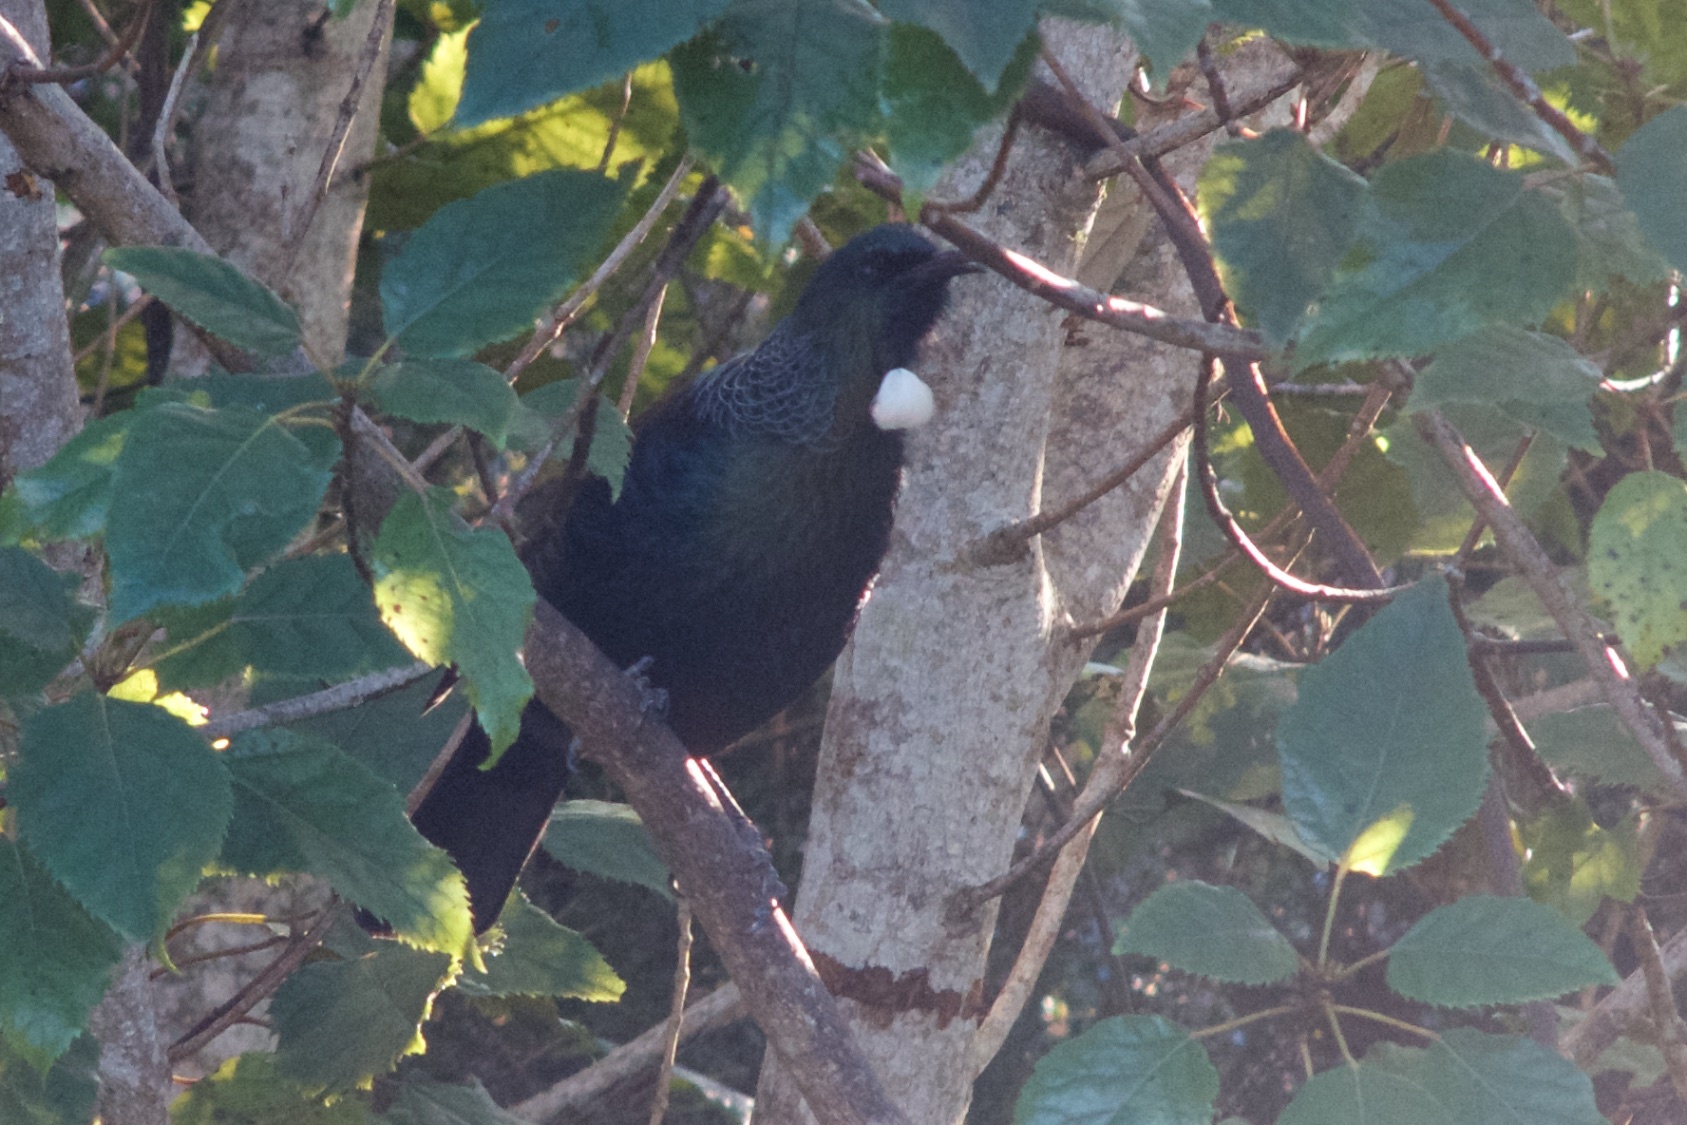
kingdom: Animalia
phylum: Chordata
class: Aves
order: Passeriformes
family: Meliphagidae
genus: Prosthemadera
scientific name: Prosthemadera novaeseelandiae
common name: Tui
